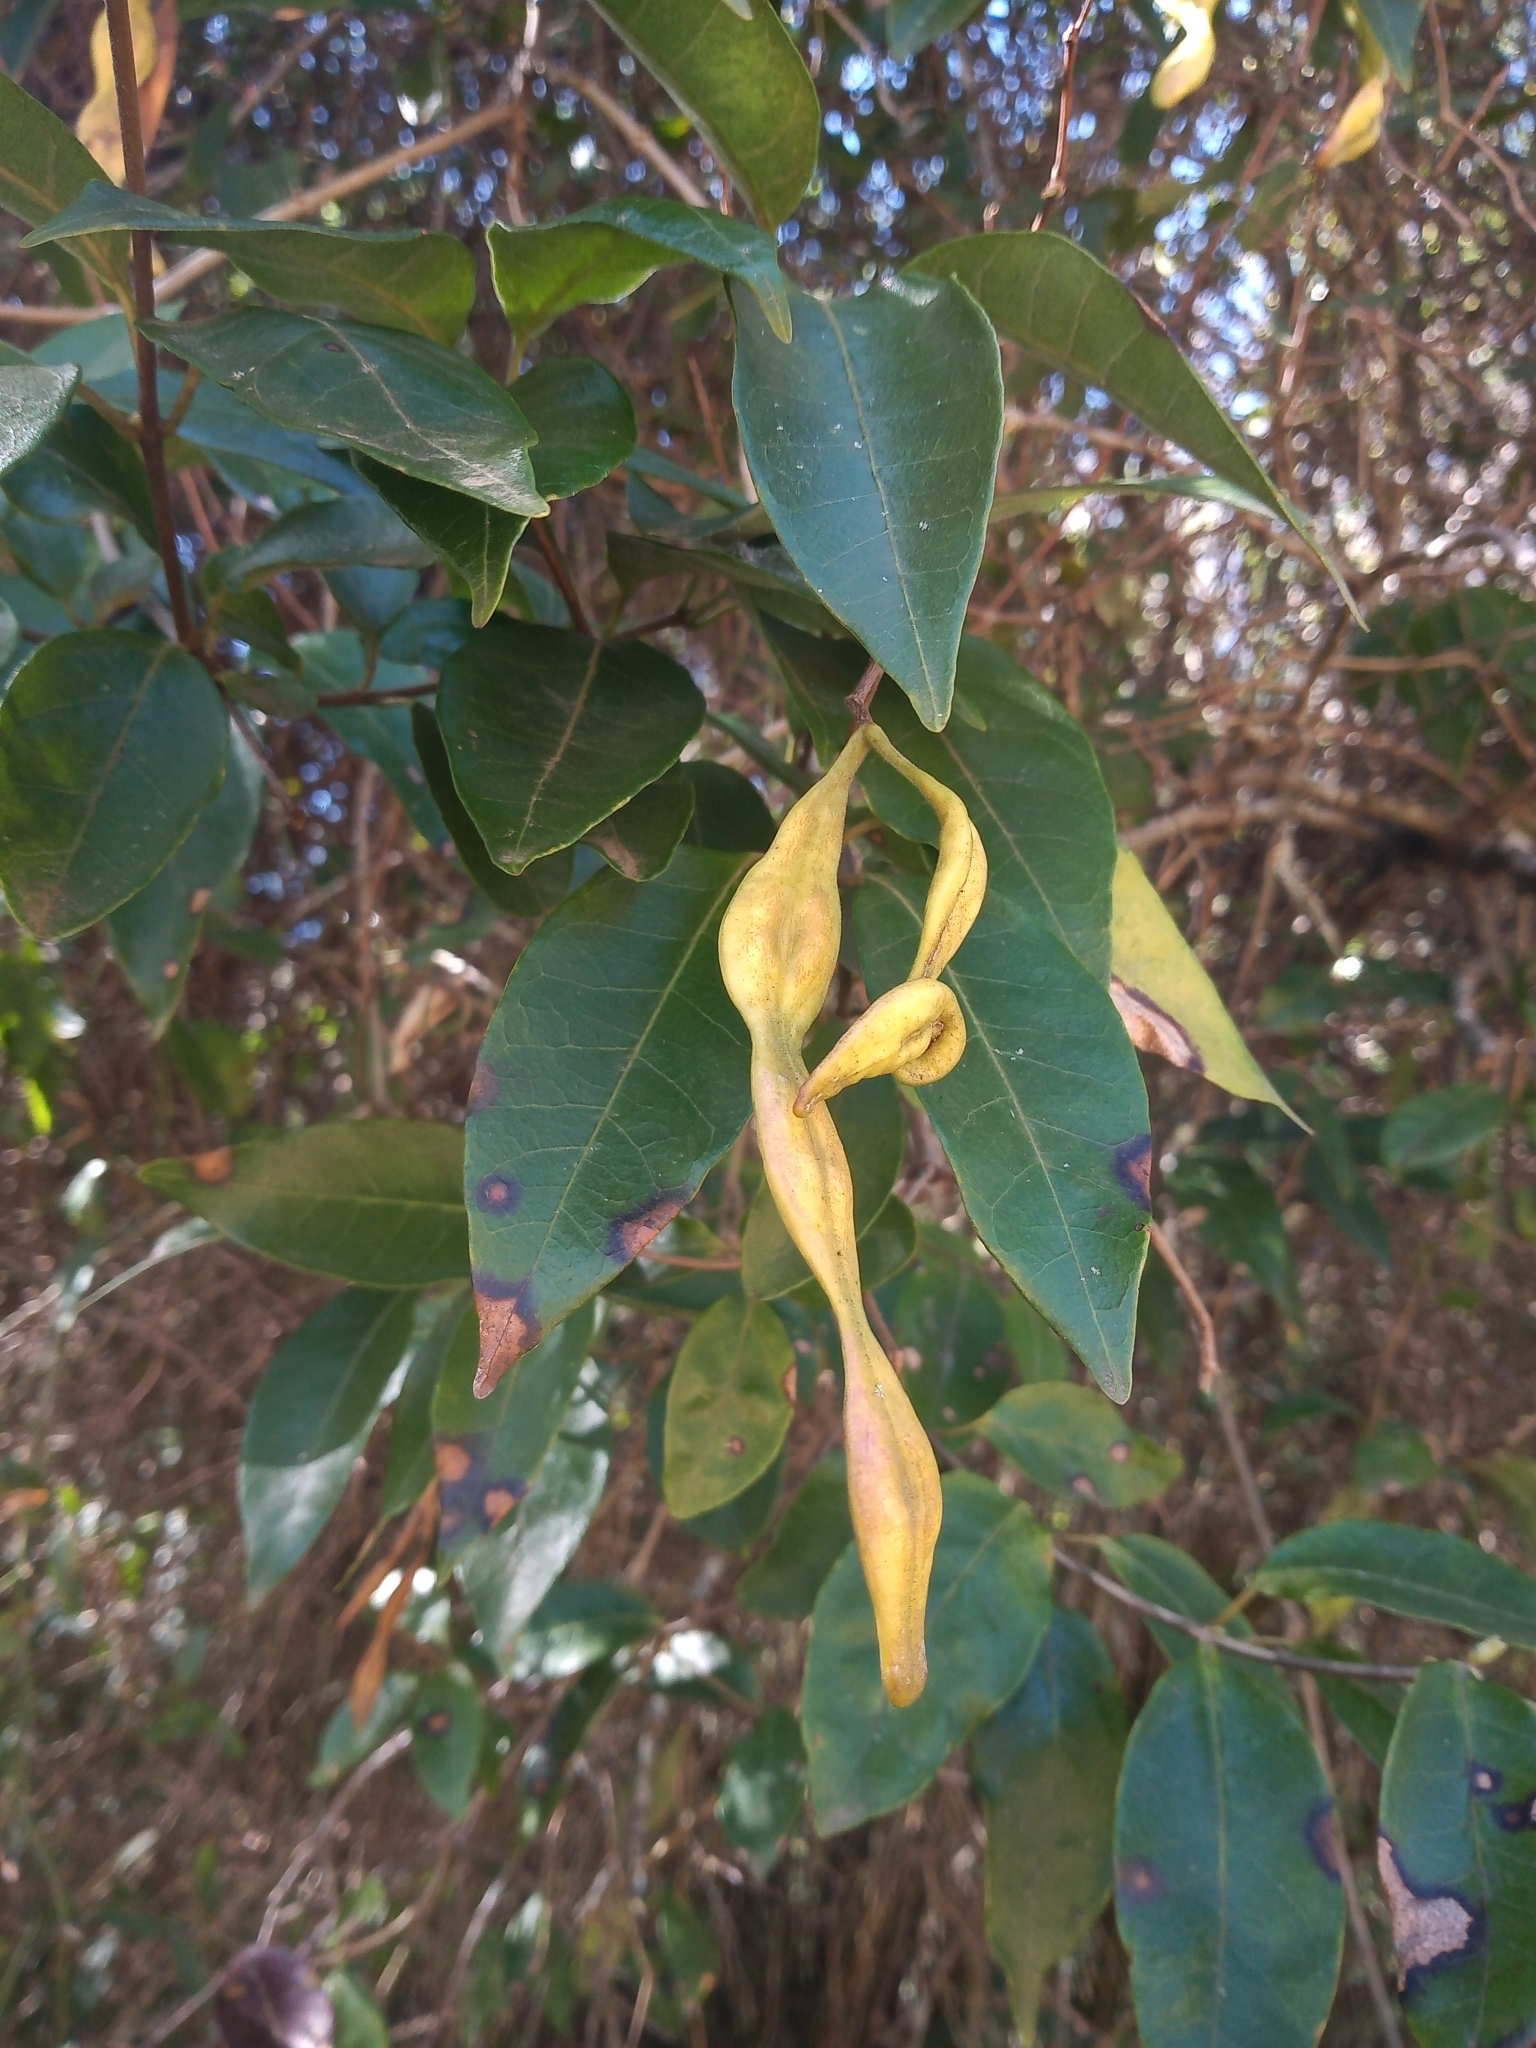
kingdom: Plantae
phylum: Tracheophyta
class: Magnoliopsida
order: Gentianales
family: Apocynaceae
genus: Condylocarpon
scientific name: Condylocarpon isthmicum
